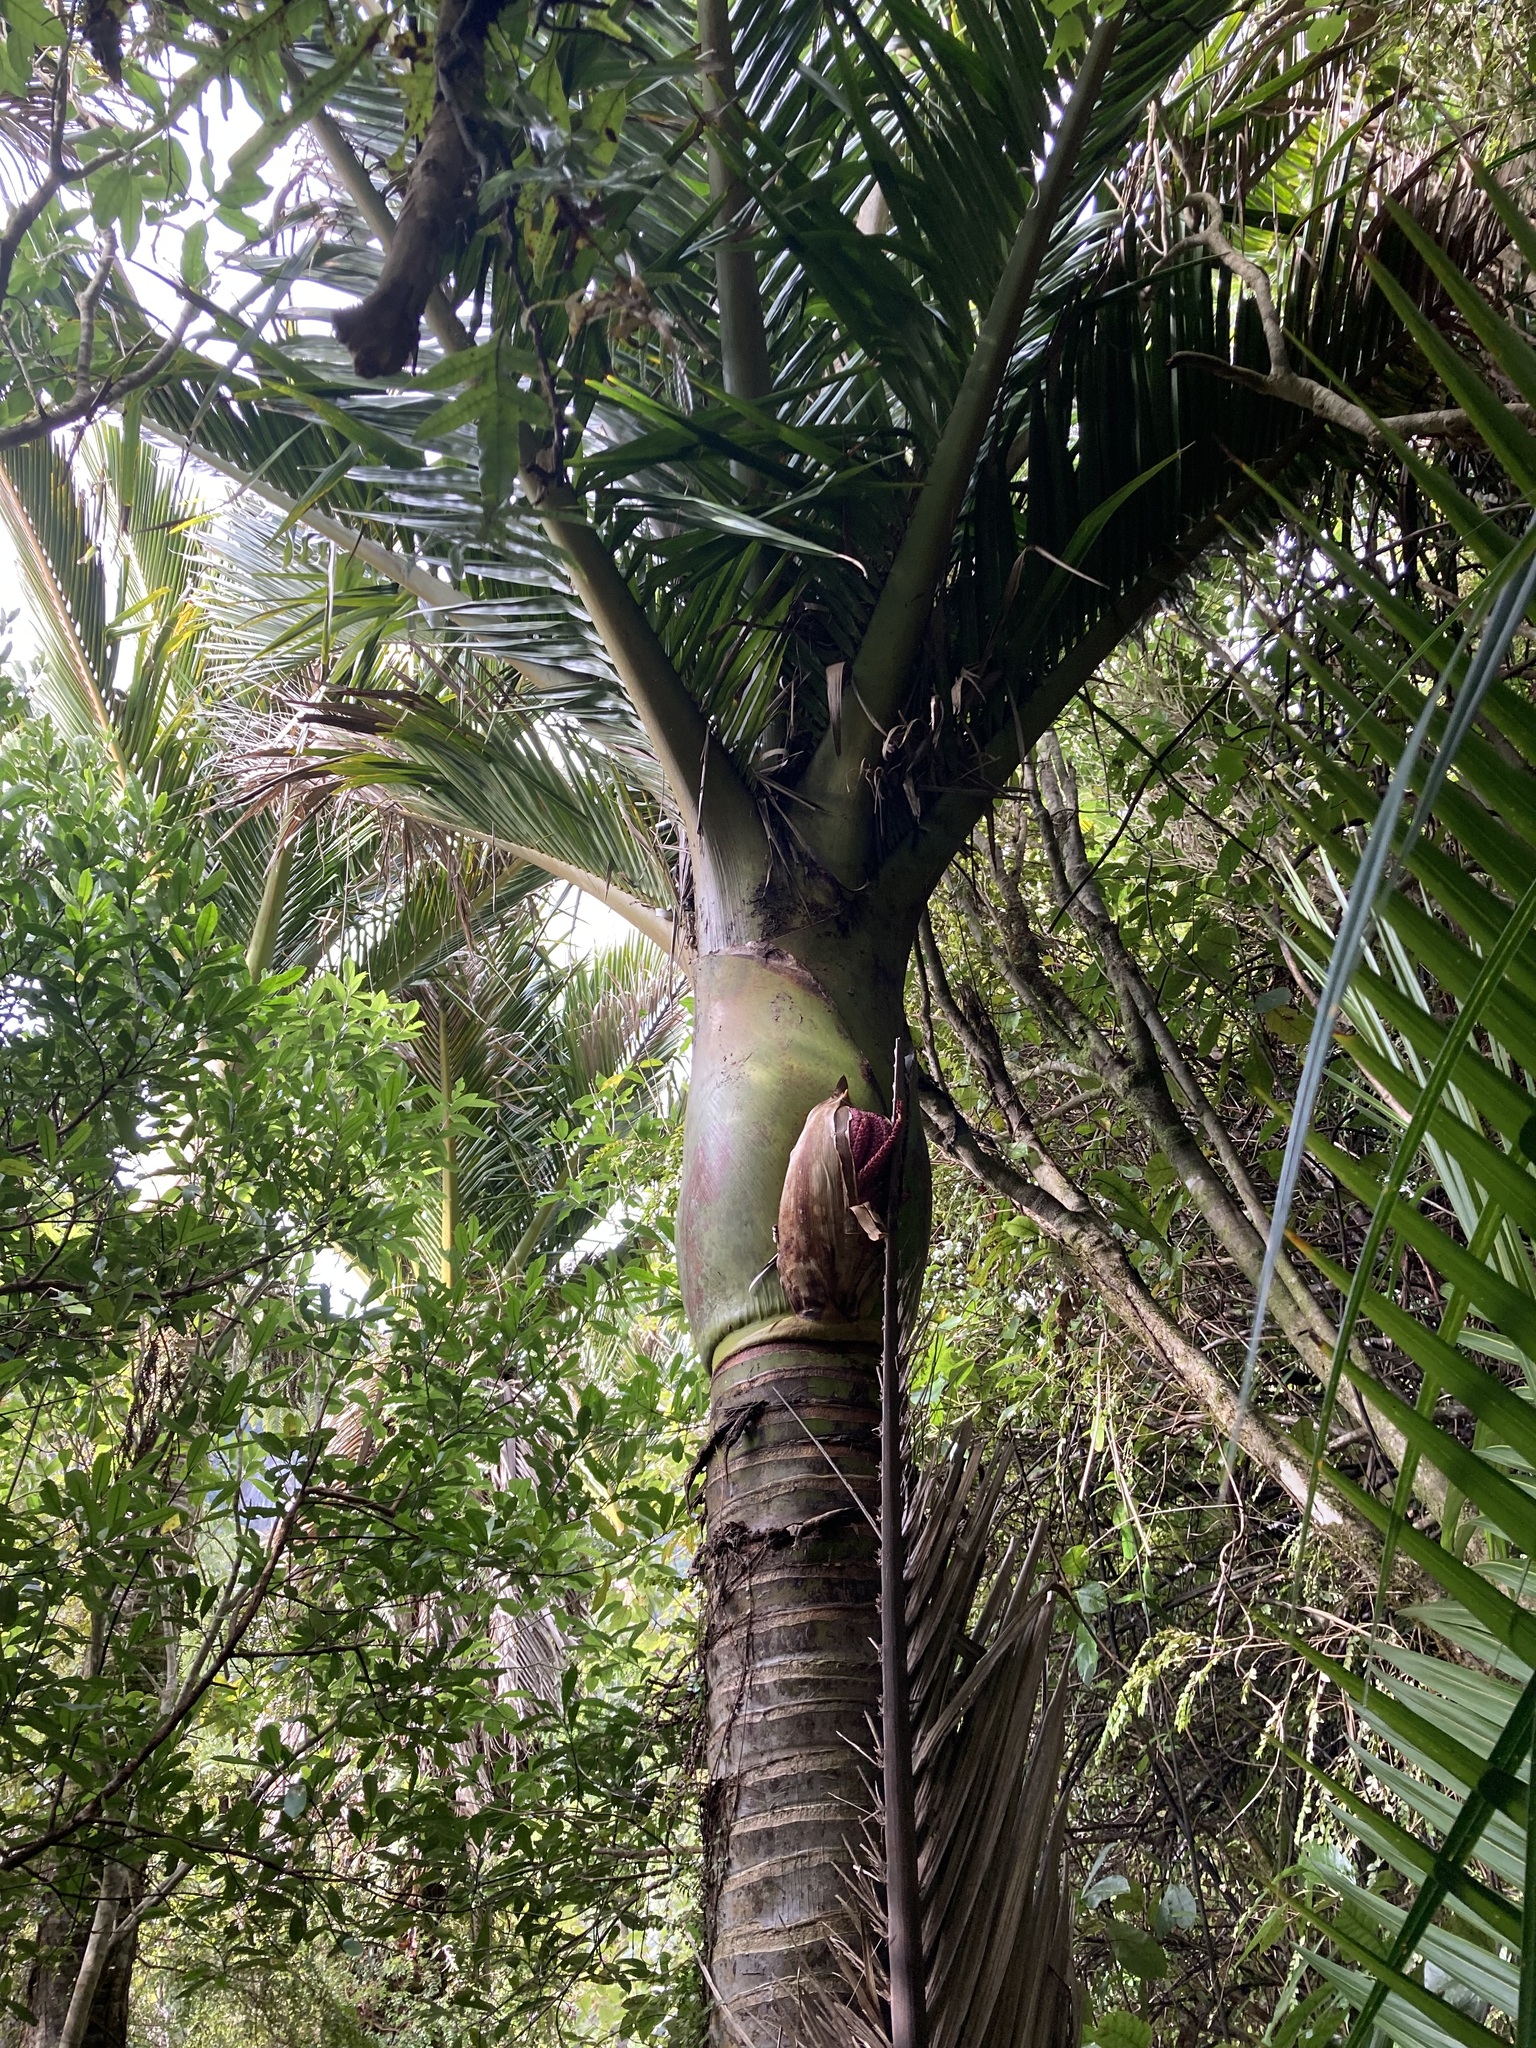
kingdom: Plantae
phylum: Tracheophyta
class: Liliopsida
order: Arecales
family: Arecaceae
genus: Rhopalostylis
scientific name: Rhopalostylis sapida
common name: Feather-duster palm
